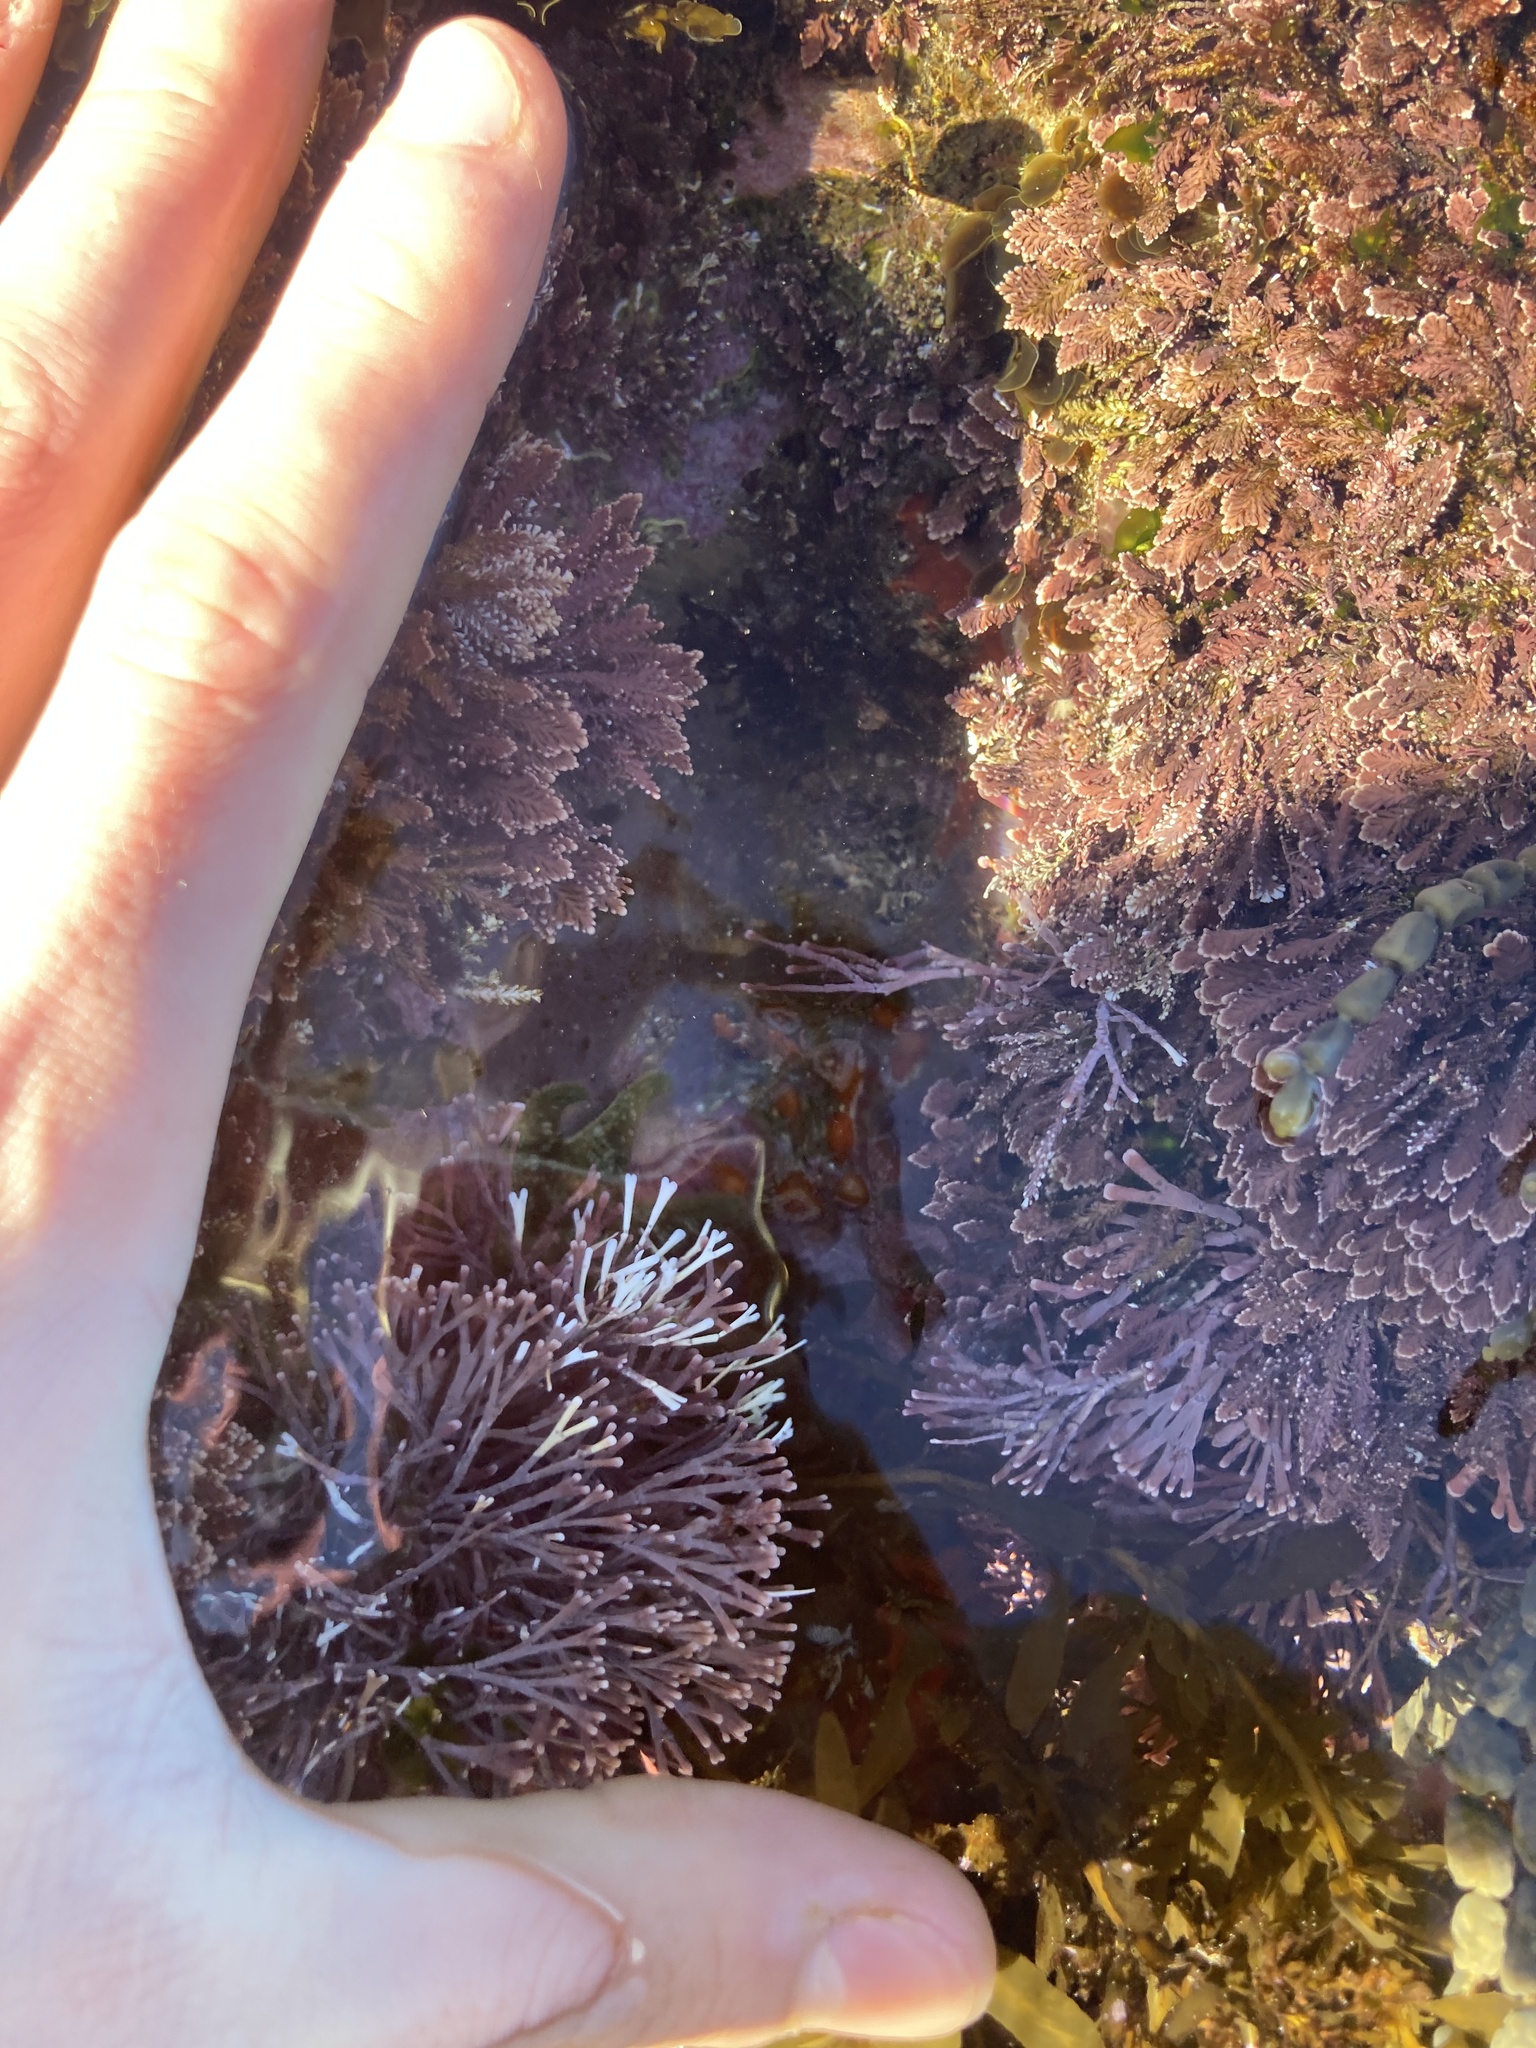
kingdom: Animalia
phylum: Cnidaria
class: Anthozoa
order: Corallimorpharia
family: Corallimorphidae
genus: Corynactis
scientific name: Corynactis australis
